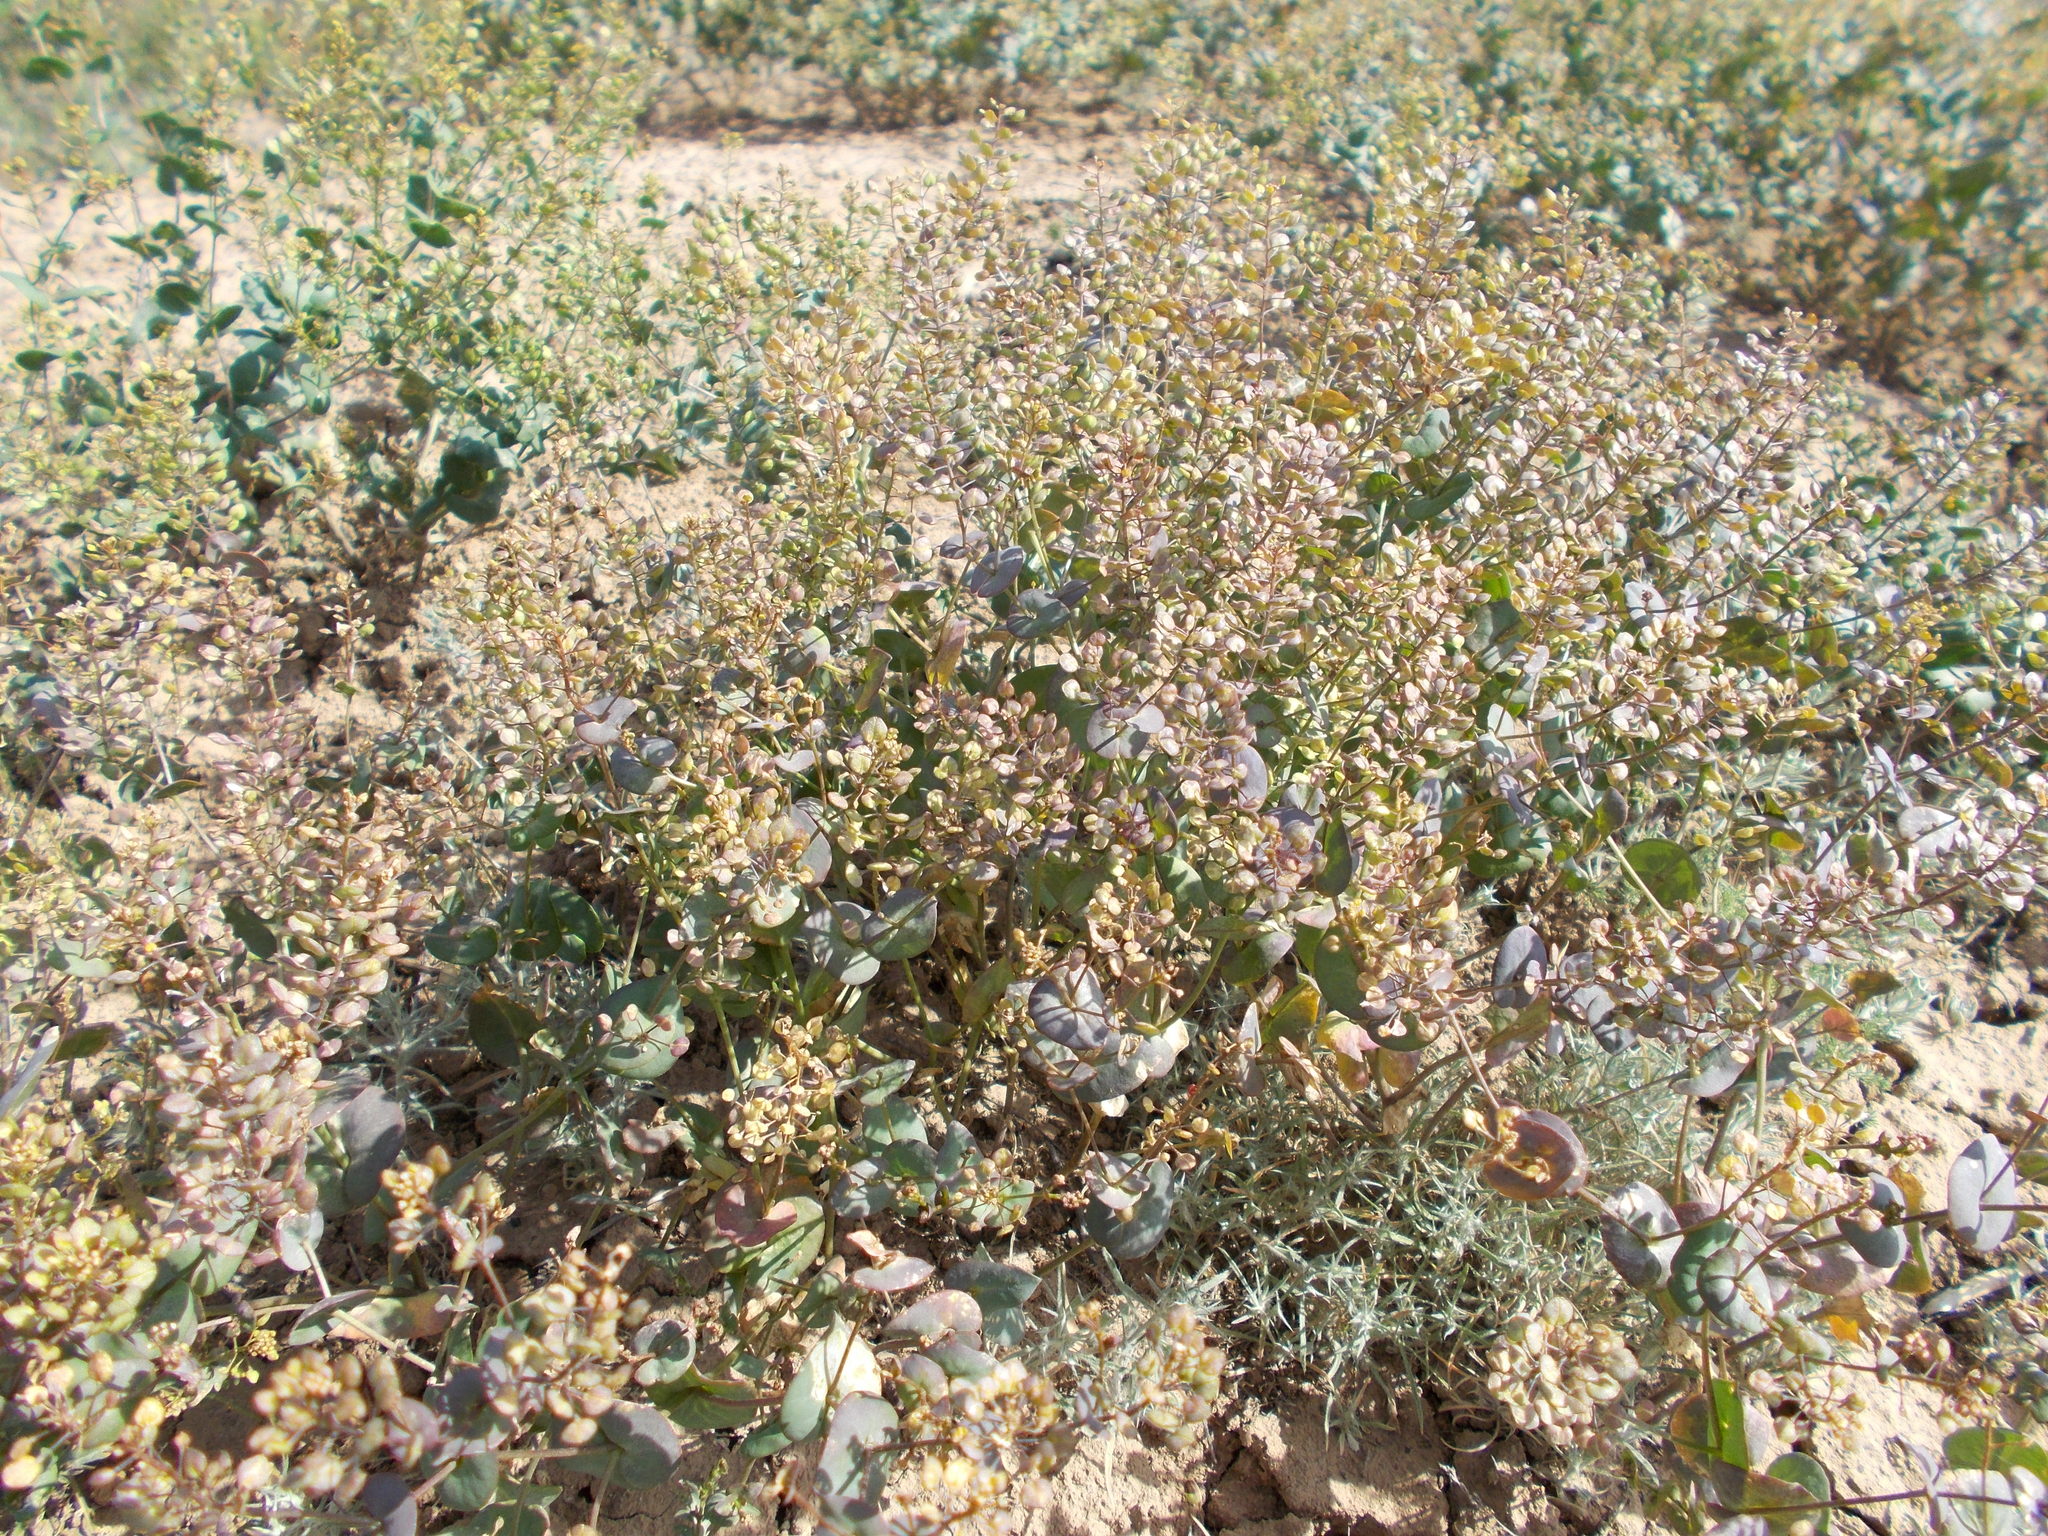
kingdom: Plantae
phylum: Tracheophyta
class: Magnoliopsida
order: Brassicales
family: Brassicaceae
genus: Lepidium
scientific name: Lepidium perfoliatum
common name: Perfoliate pepperwort
